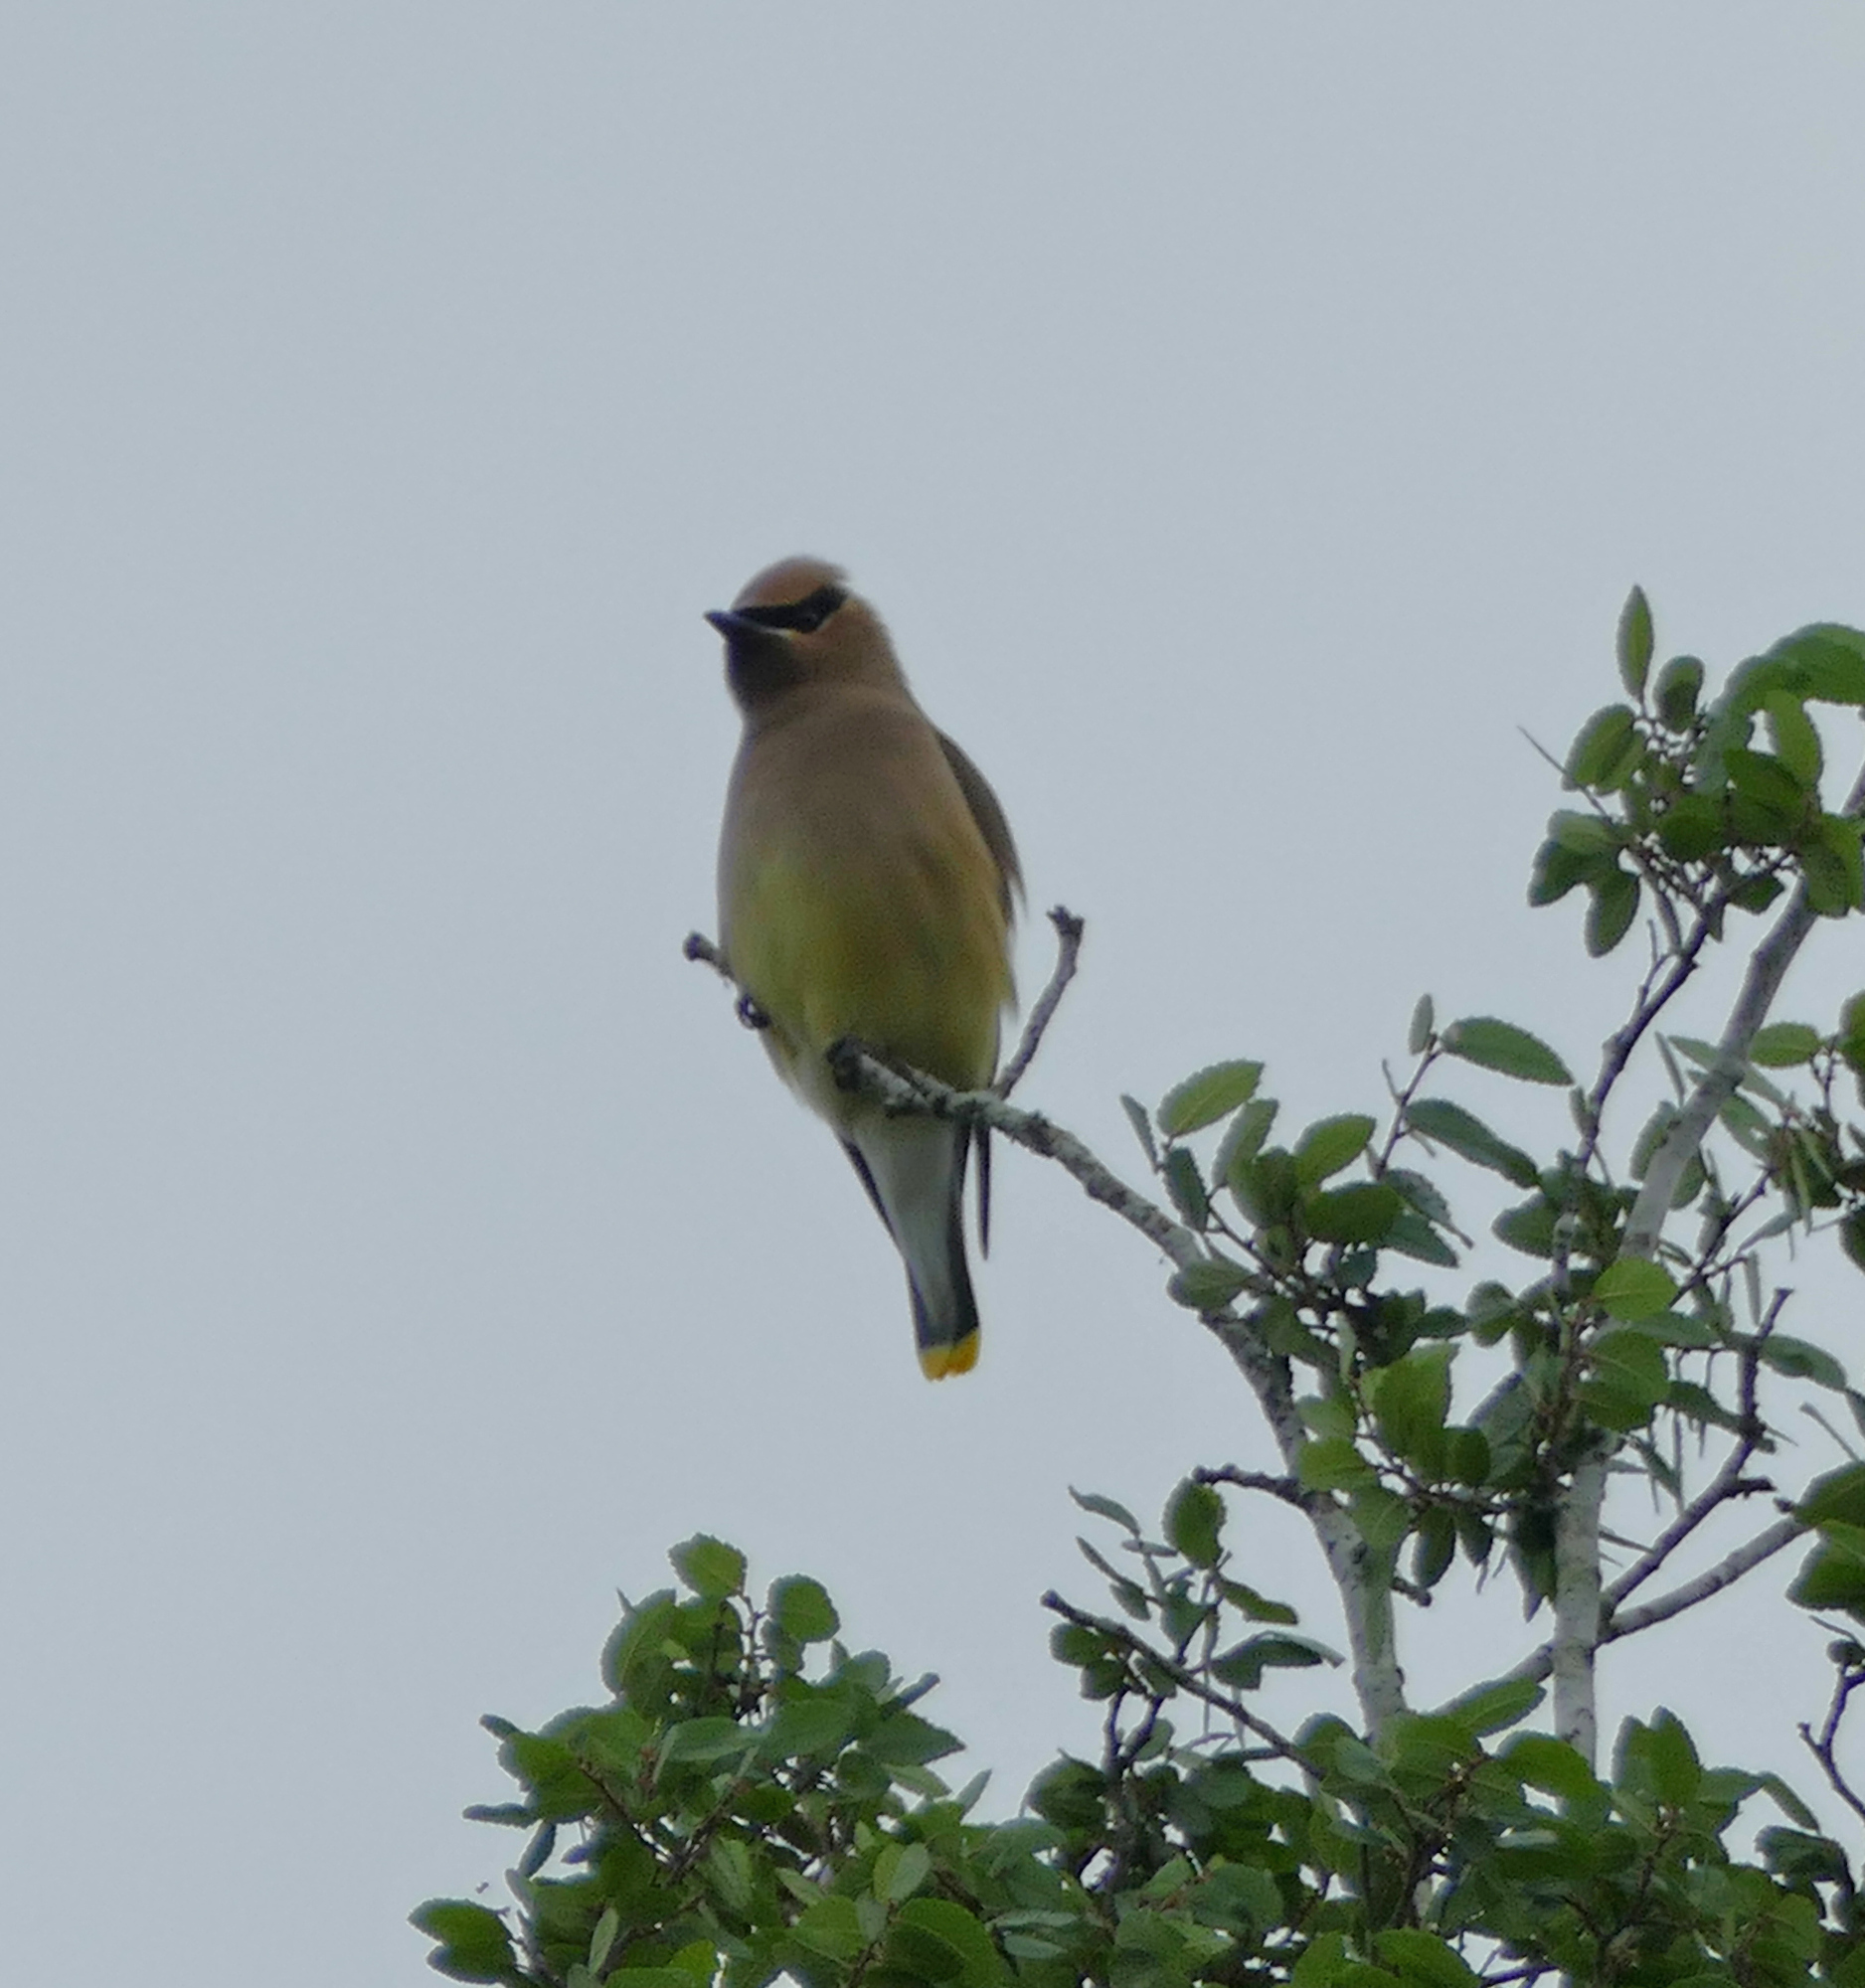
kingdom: Animalia
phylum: Chordata
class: Aves
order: Passeriformes
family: Bombycillidae
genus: Bombycilla
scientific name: Bombycilla cedrorum
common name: Cedar waxwing
